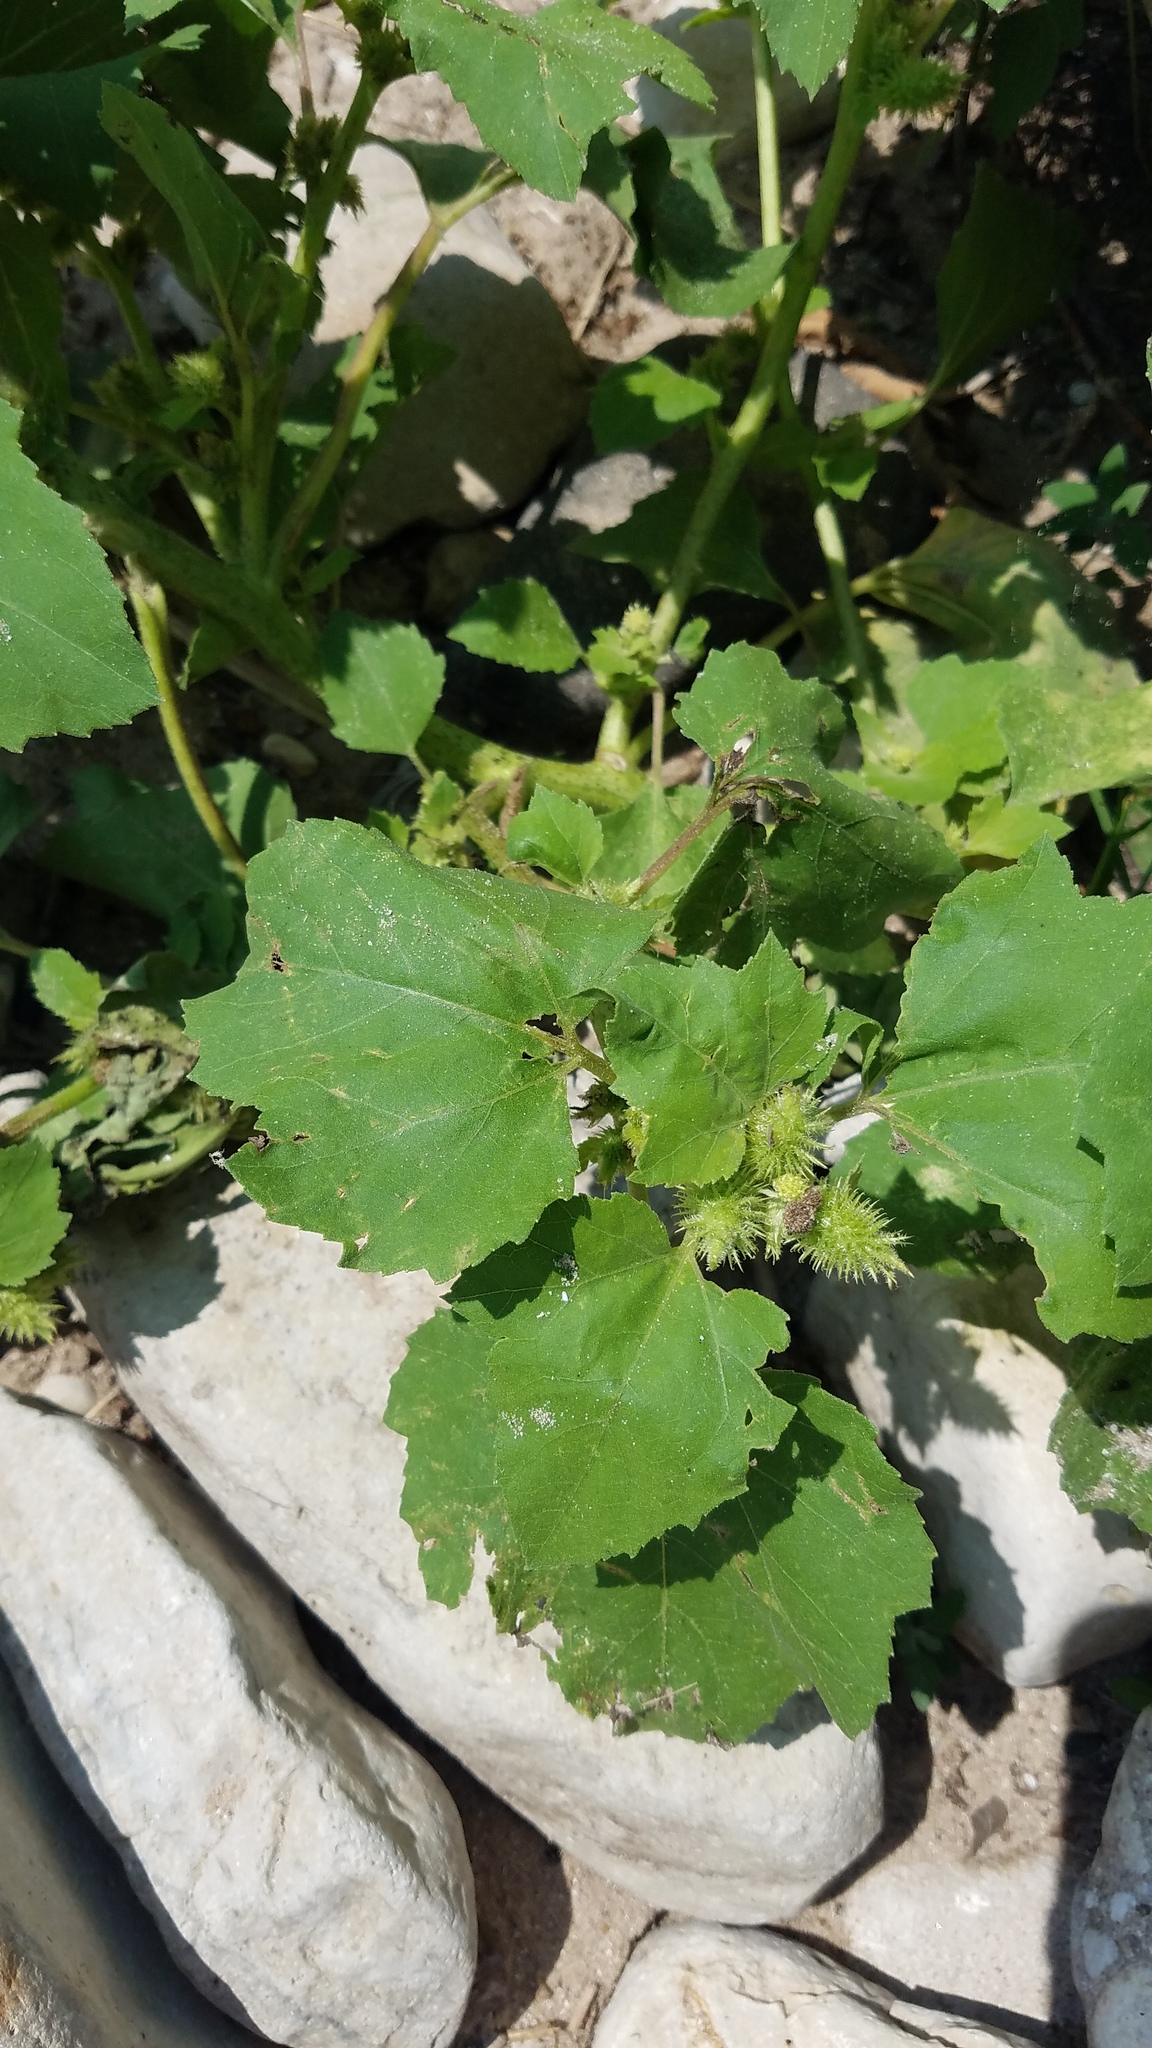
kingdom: Plantae
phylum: Tracheophyta
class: Magnoliopsida
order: Asterales
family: Asteraceae
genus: Xanthium
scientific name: Xanthium strumarium
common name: Rough cocklebur
